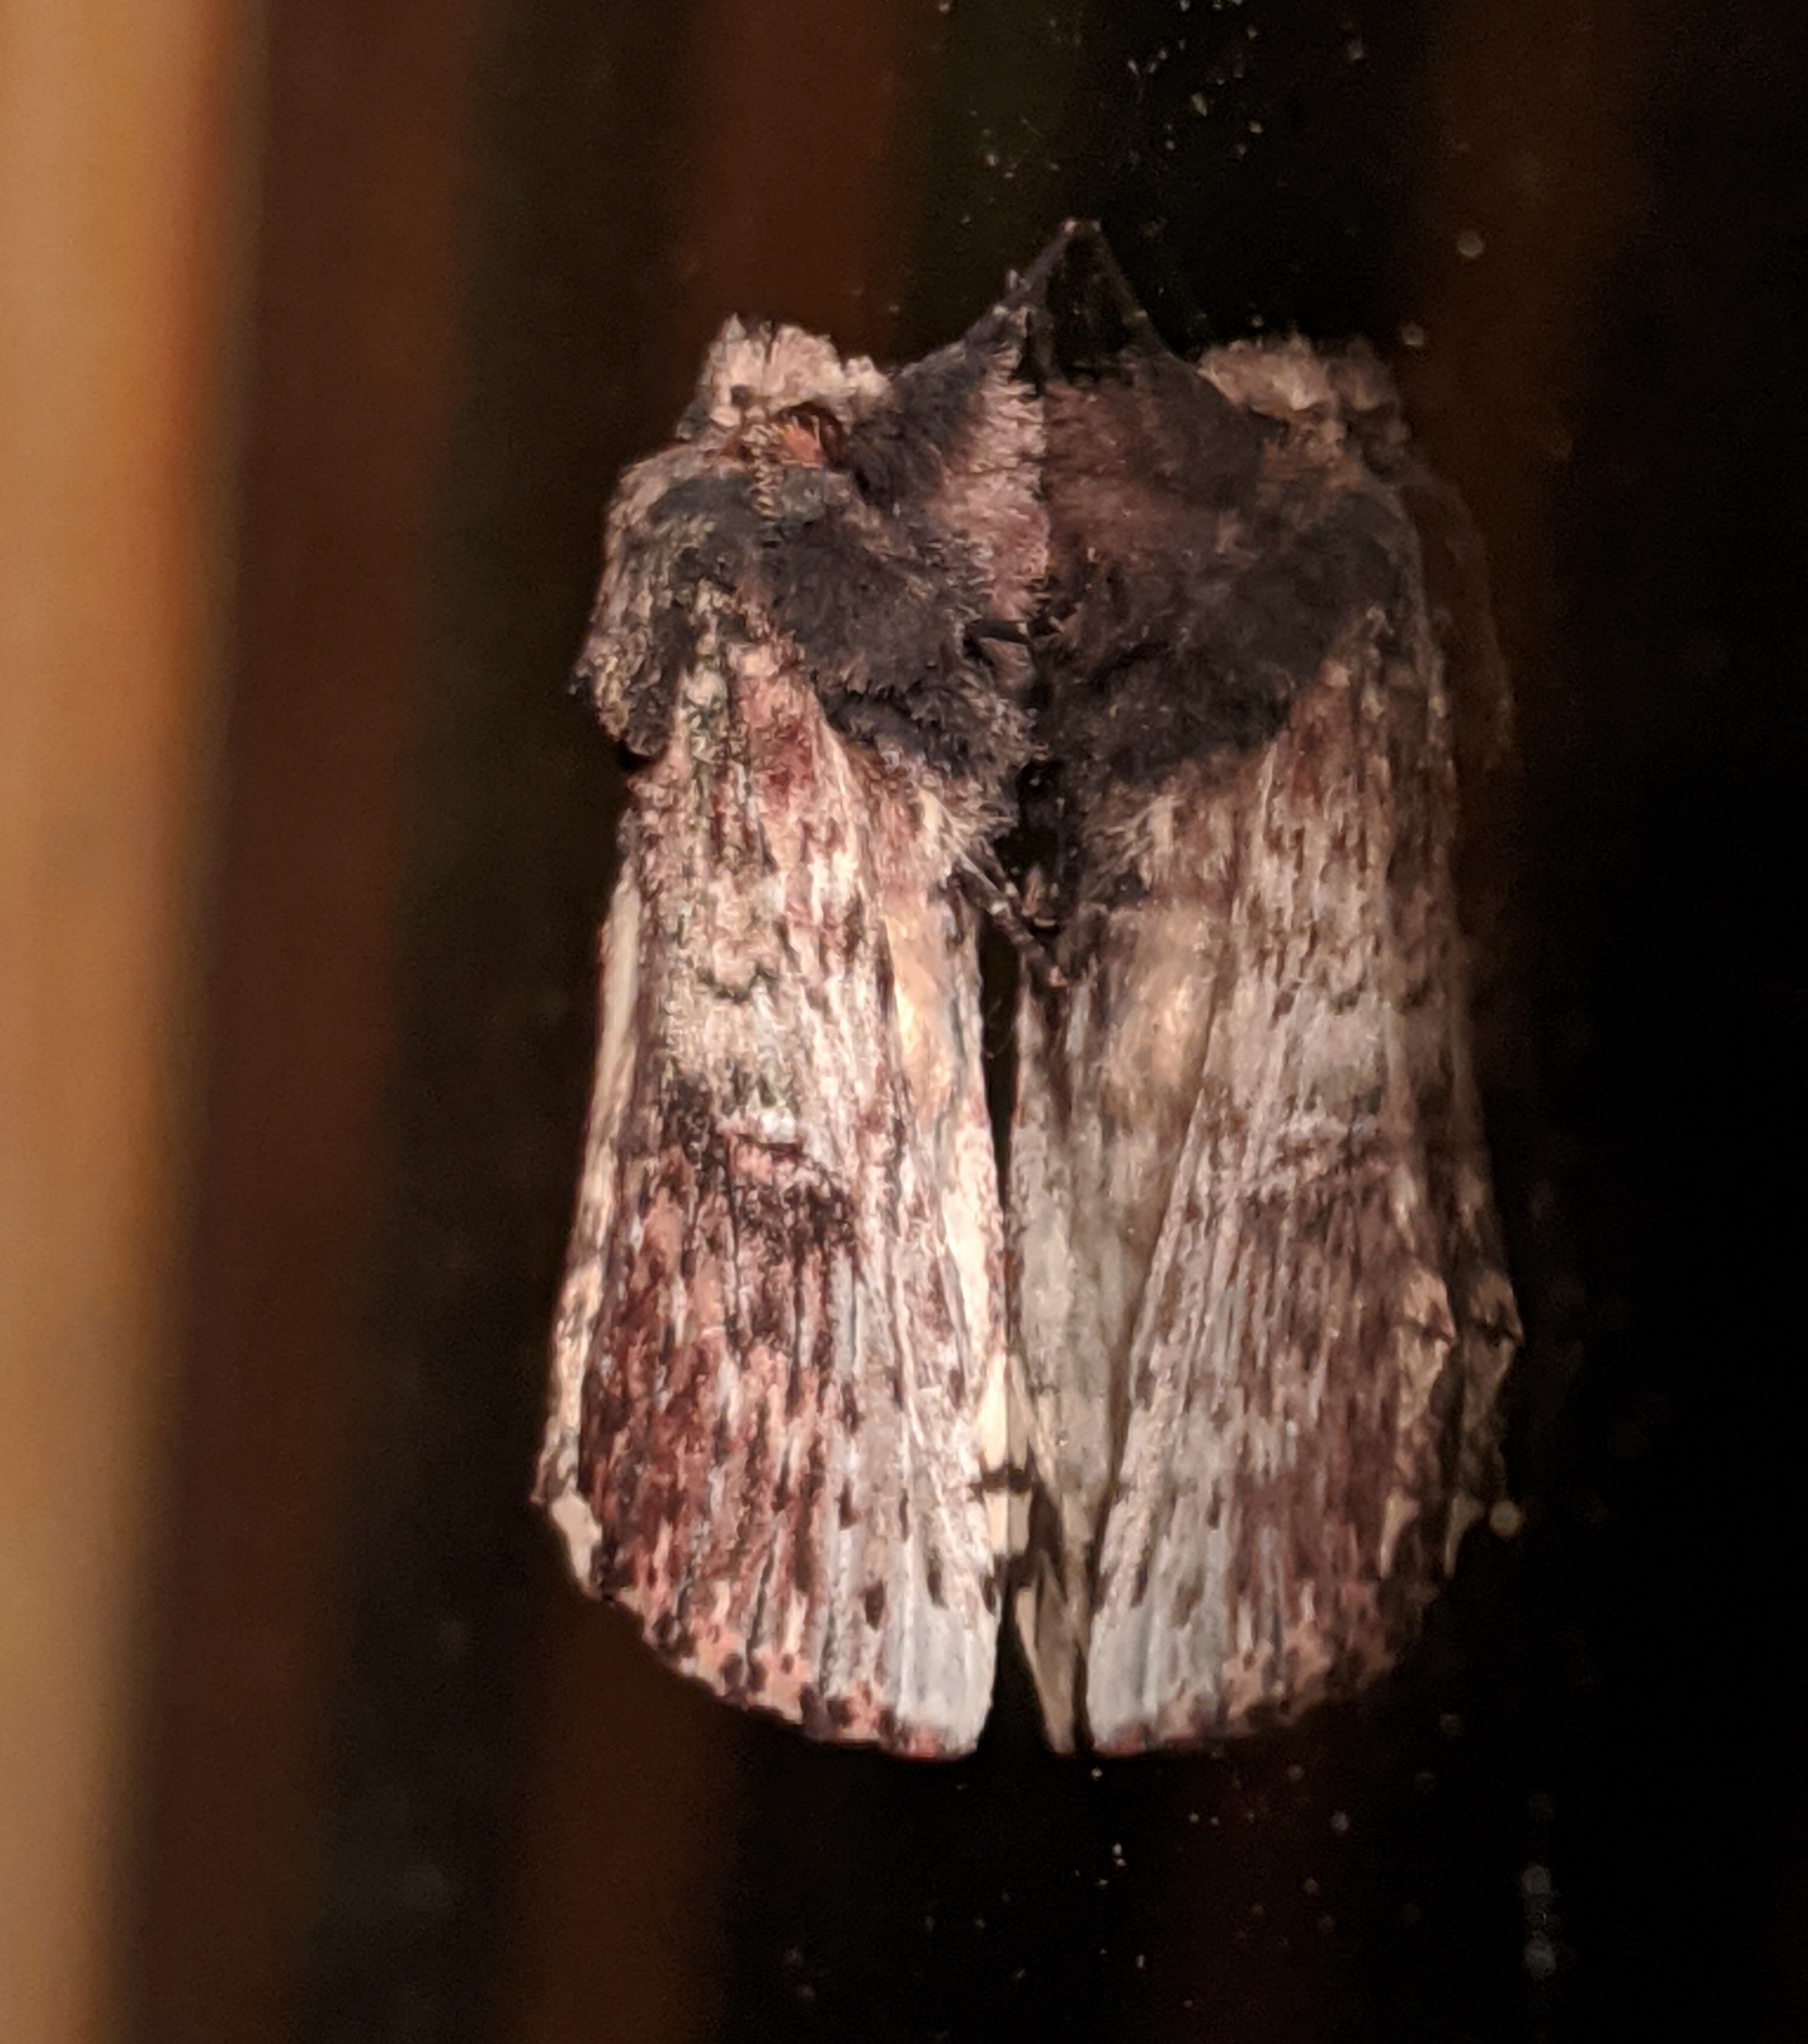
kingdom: Animalia
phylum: Arthropoda
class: Insecta
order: Lepidoptera
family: Notodontidae
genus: Schizura
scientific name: Schizura ipomaeae
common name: Morning-glory prominent
